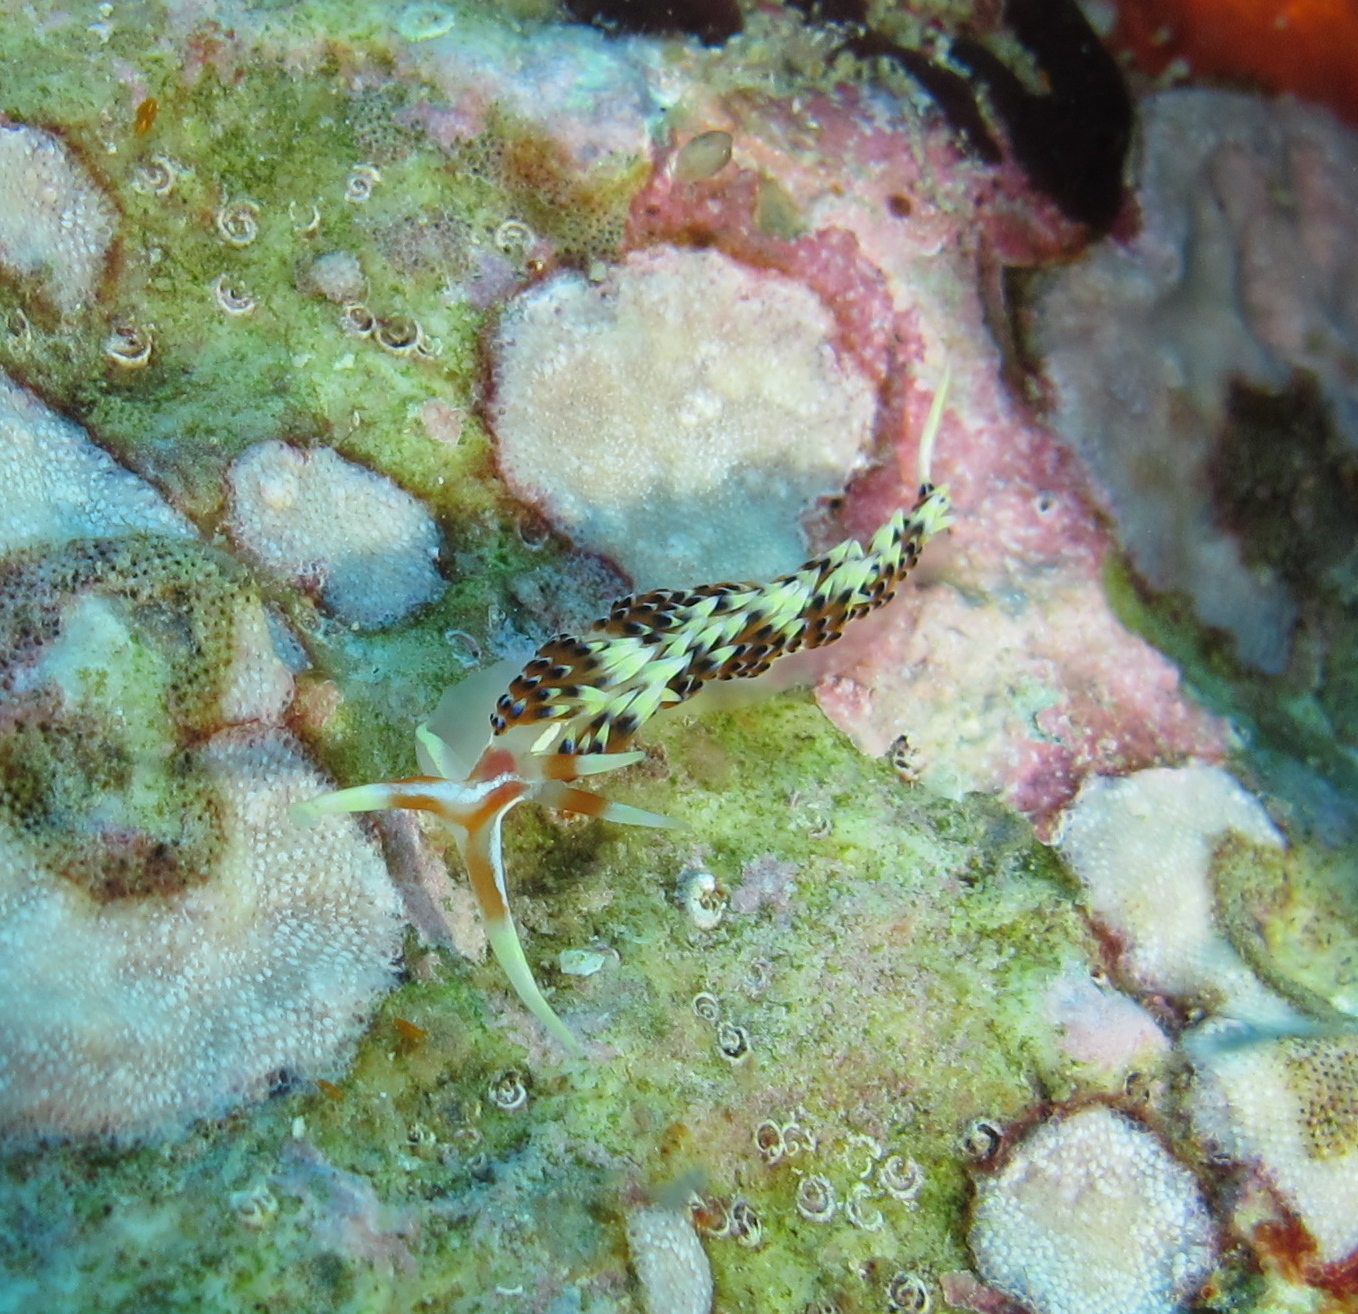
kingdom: Animalia
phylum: Mollusca
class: Gastropoda
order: Nudibranchia
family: Facelinidae
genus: Caloria
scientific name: Caloria indica
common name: Sea slug
